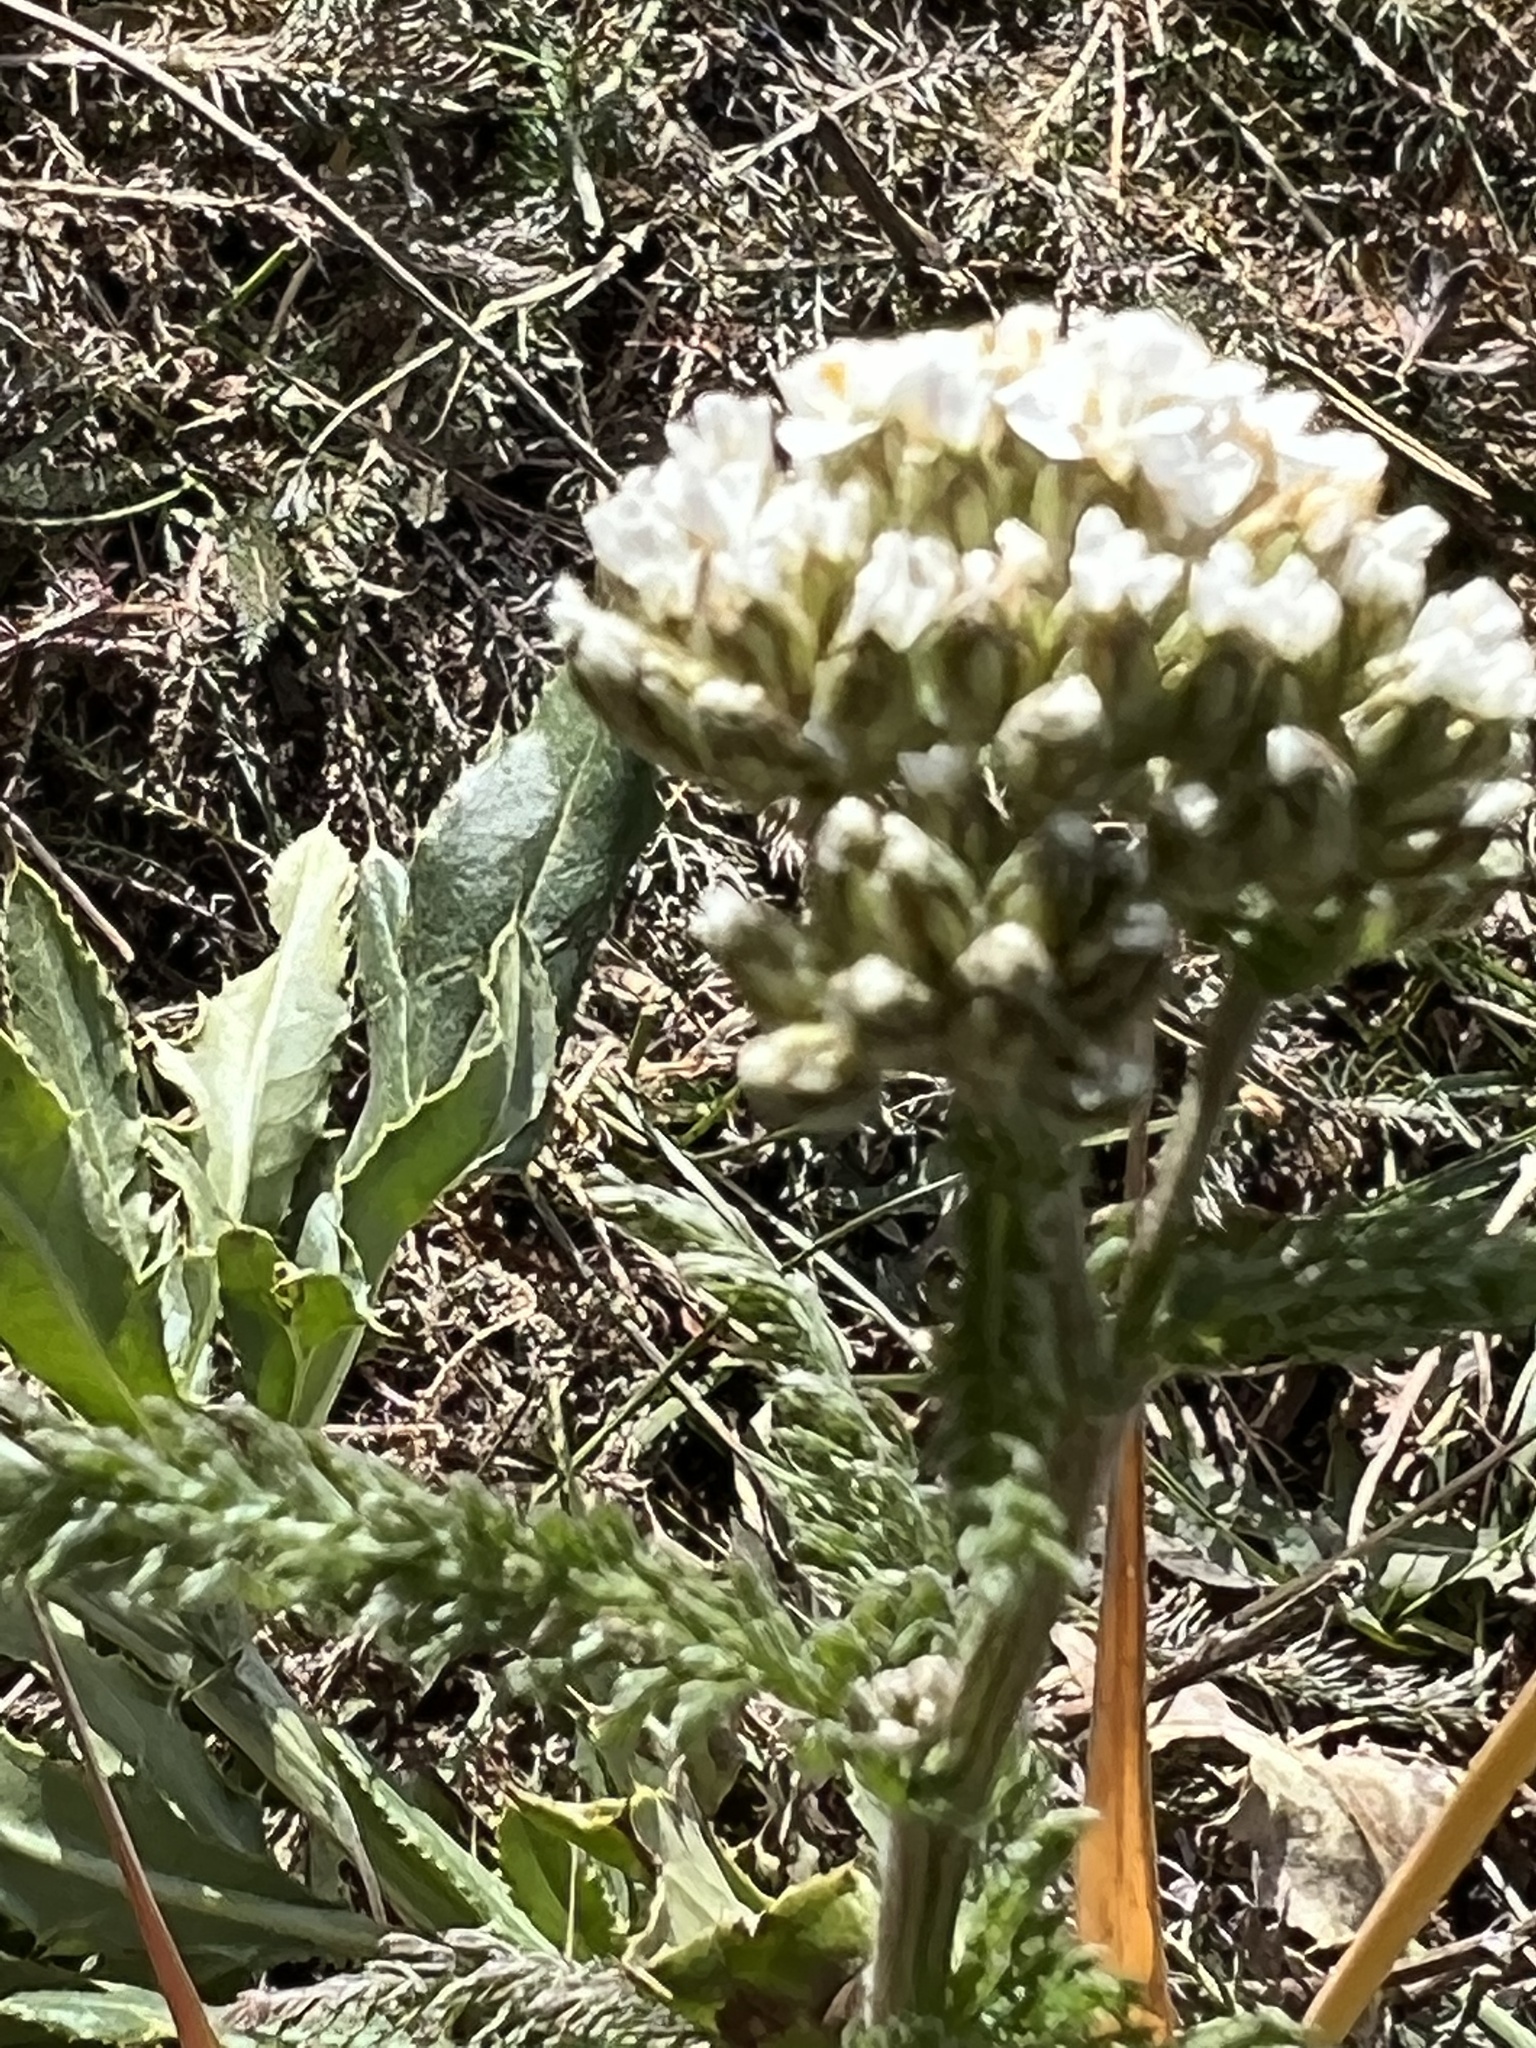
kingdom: Plantae
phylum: Tracheophyta
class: Magnoliopsida
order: Asterales
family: Asteraceae
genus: Achillea
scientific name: Achillea millefolium
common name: Yarrow
